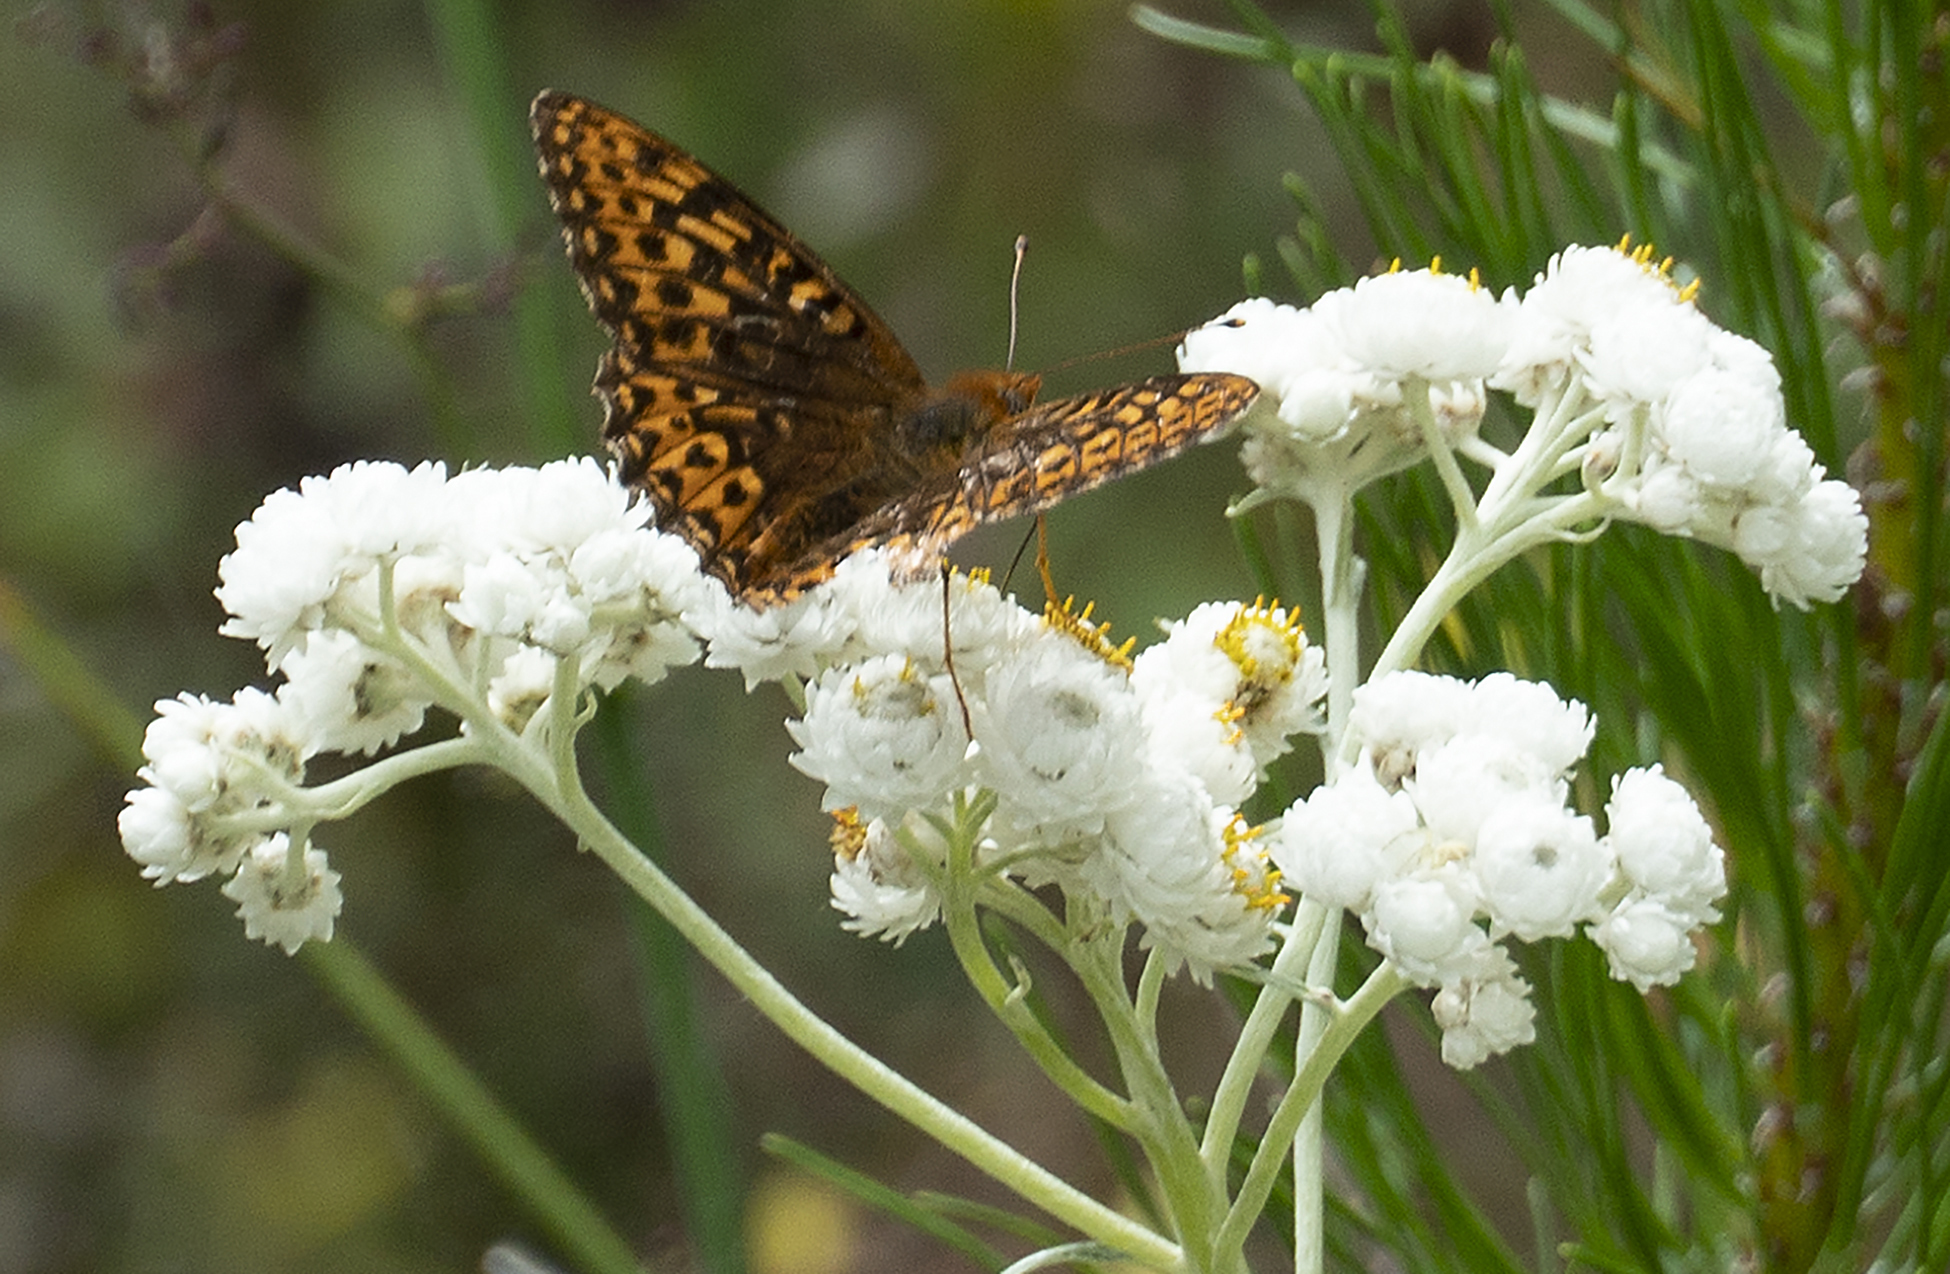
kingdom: Animalia
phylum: Arthropoda
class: Insecta
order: Lepidoptera
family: Nymphalidae
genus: Speyeria
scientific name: Speyeria hydaspe
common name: Hydaspe fritillary
